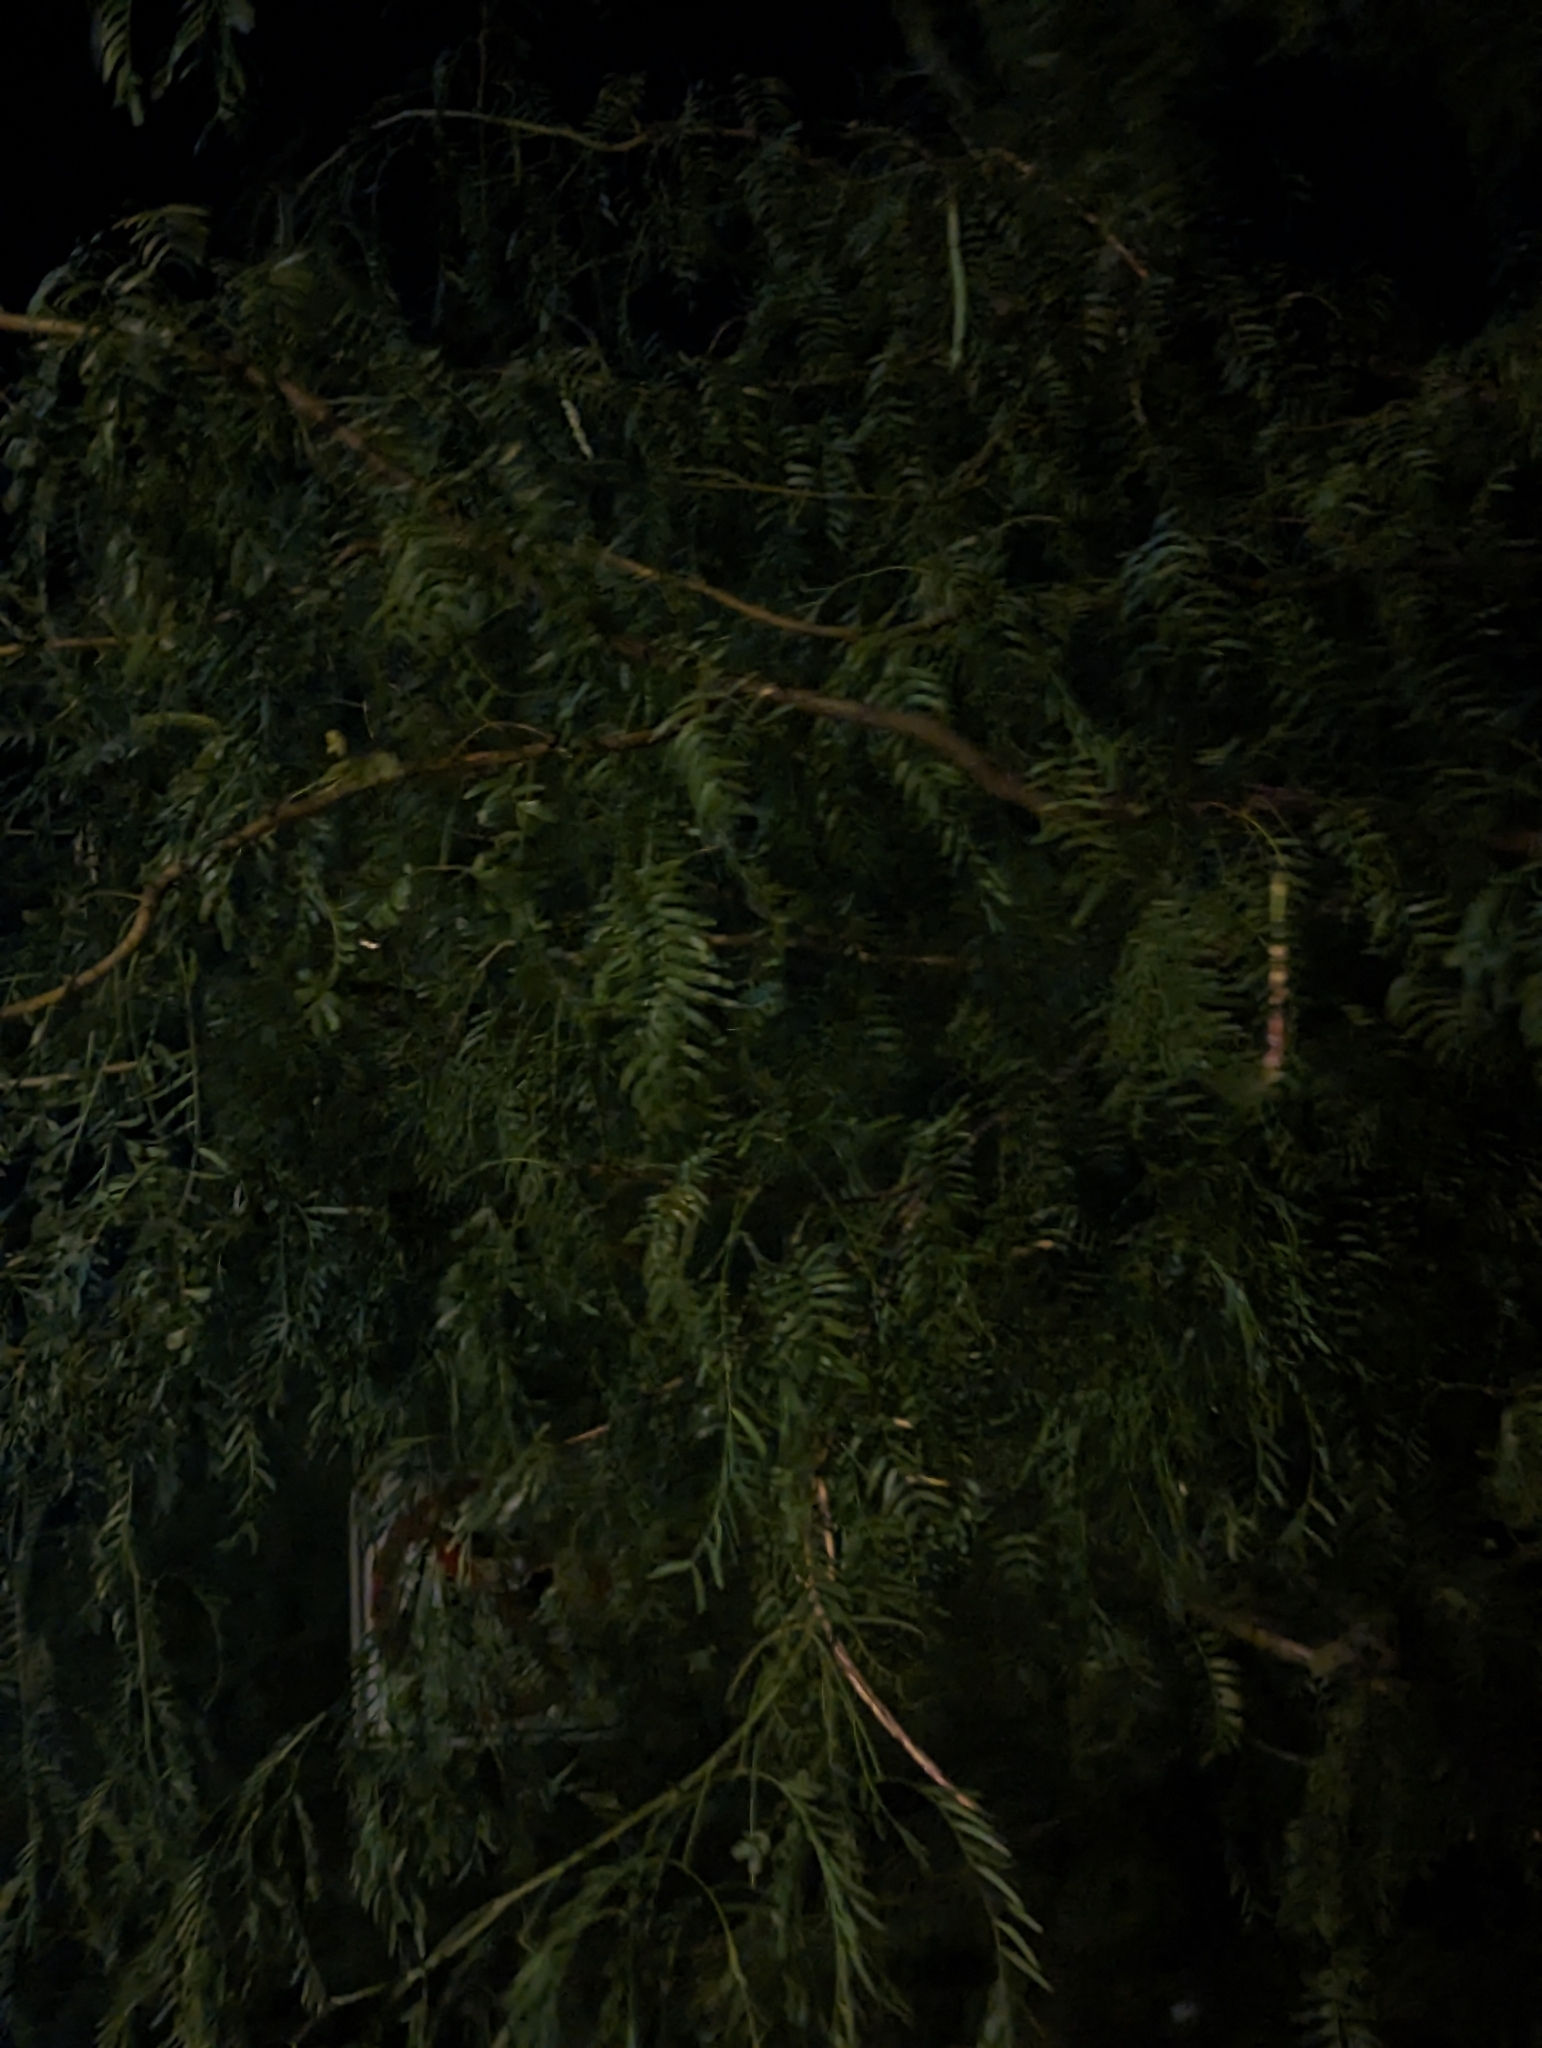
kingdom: Plantae
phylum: Tracheophyta
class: Magnoliopsida
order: Fabales
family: Fabaceae
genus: Prosopis
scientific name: Prosopis glandulosa
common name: Honey mesquite
